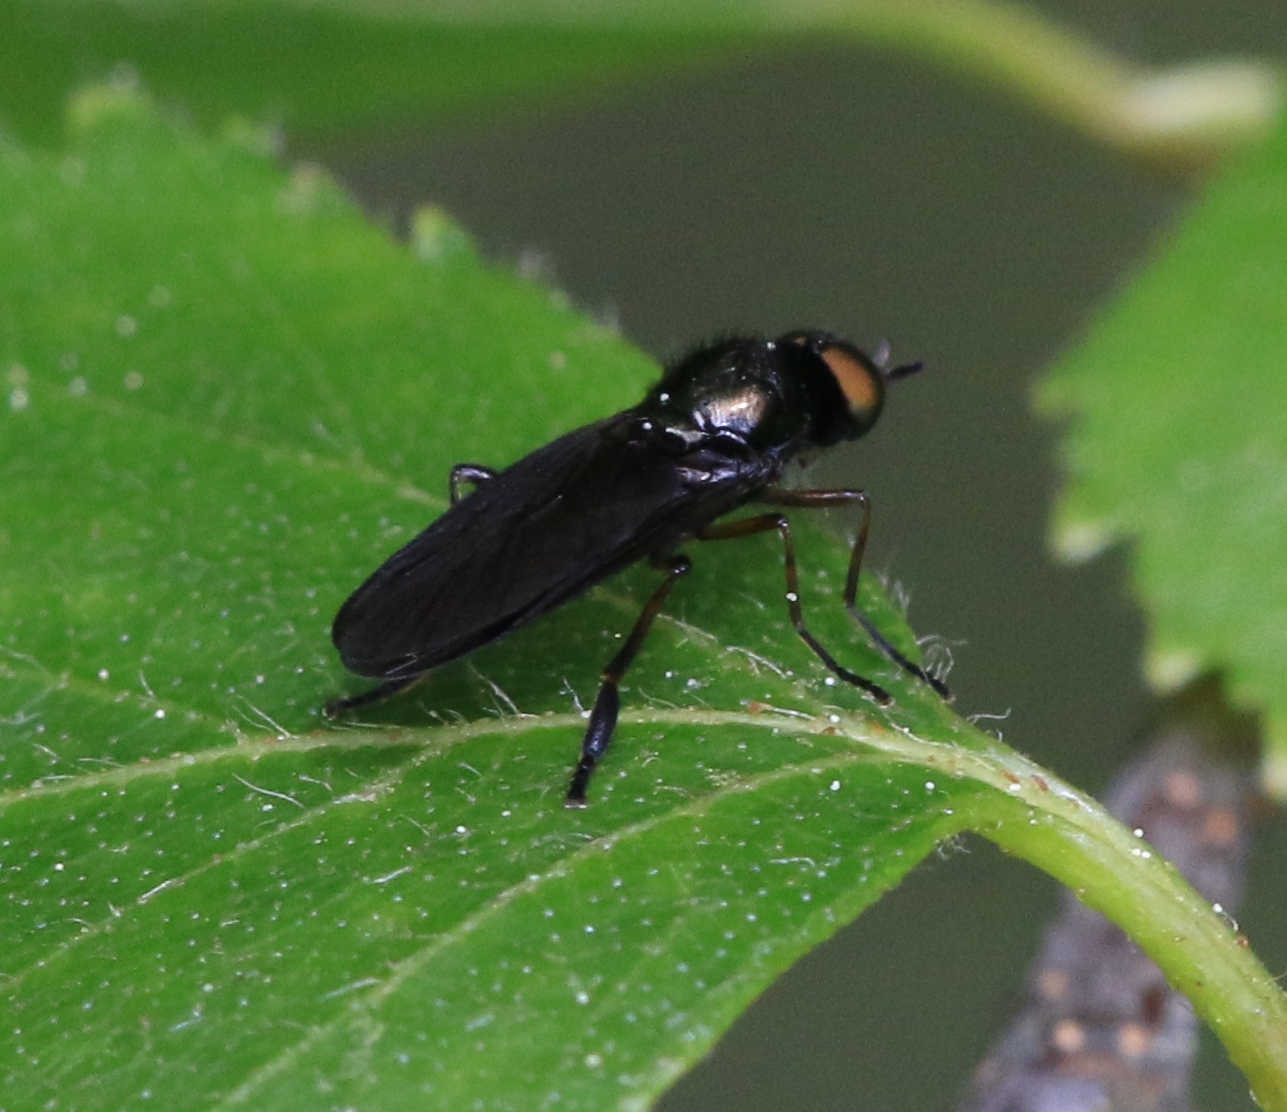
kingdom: Animalia
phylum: Arthropoda
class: Insecta
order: Diptera
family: Stratiomyidae
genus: Beris
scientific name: Beris chalybata
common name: Murky-legged black legionnaire
